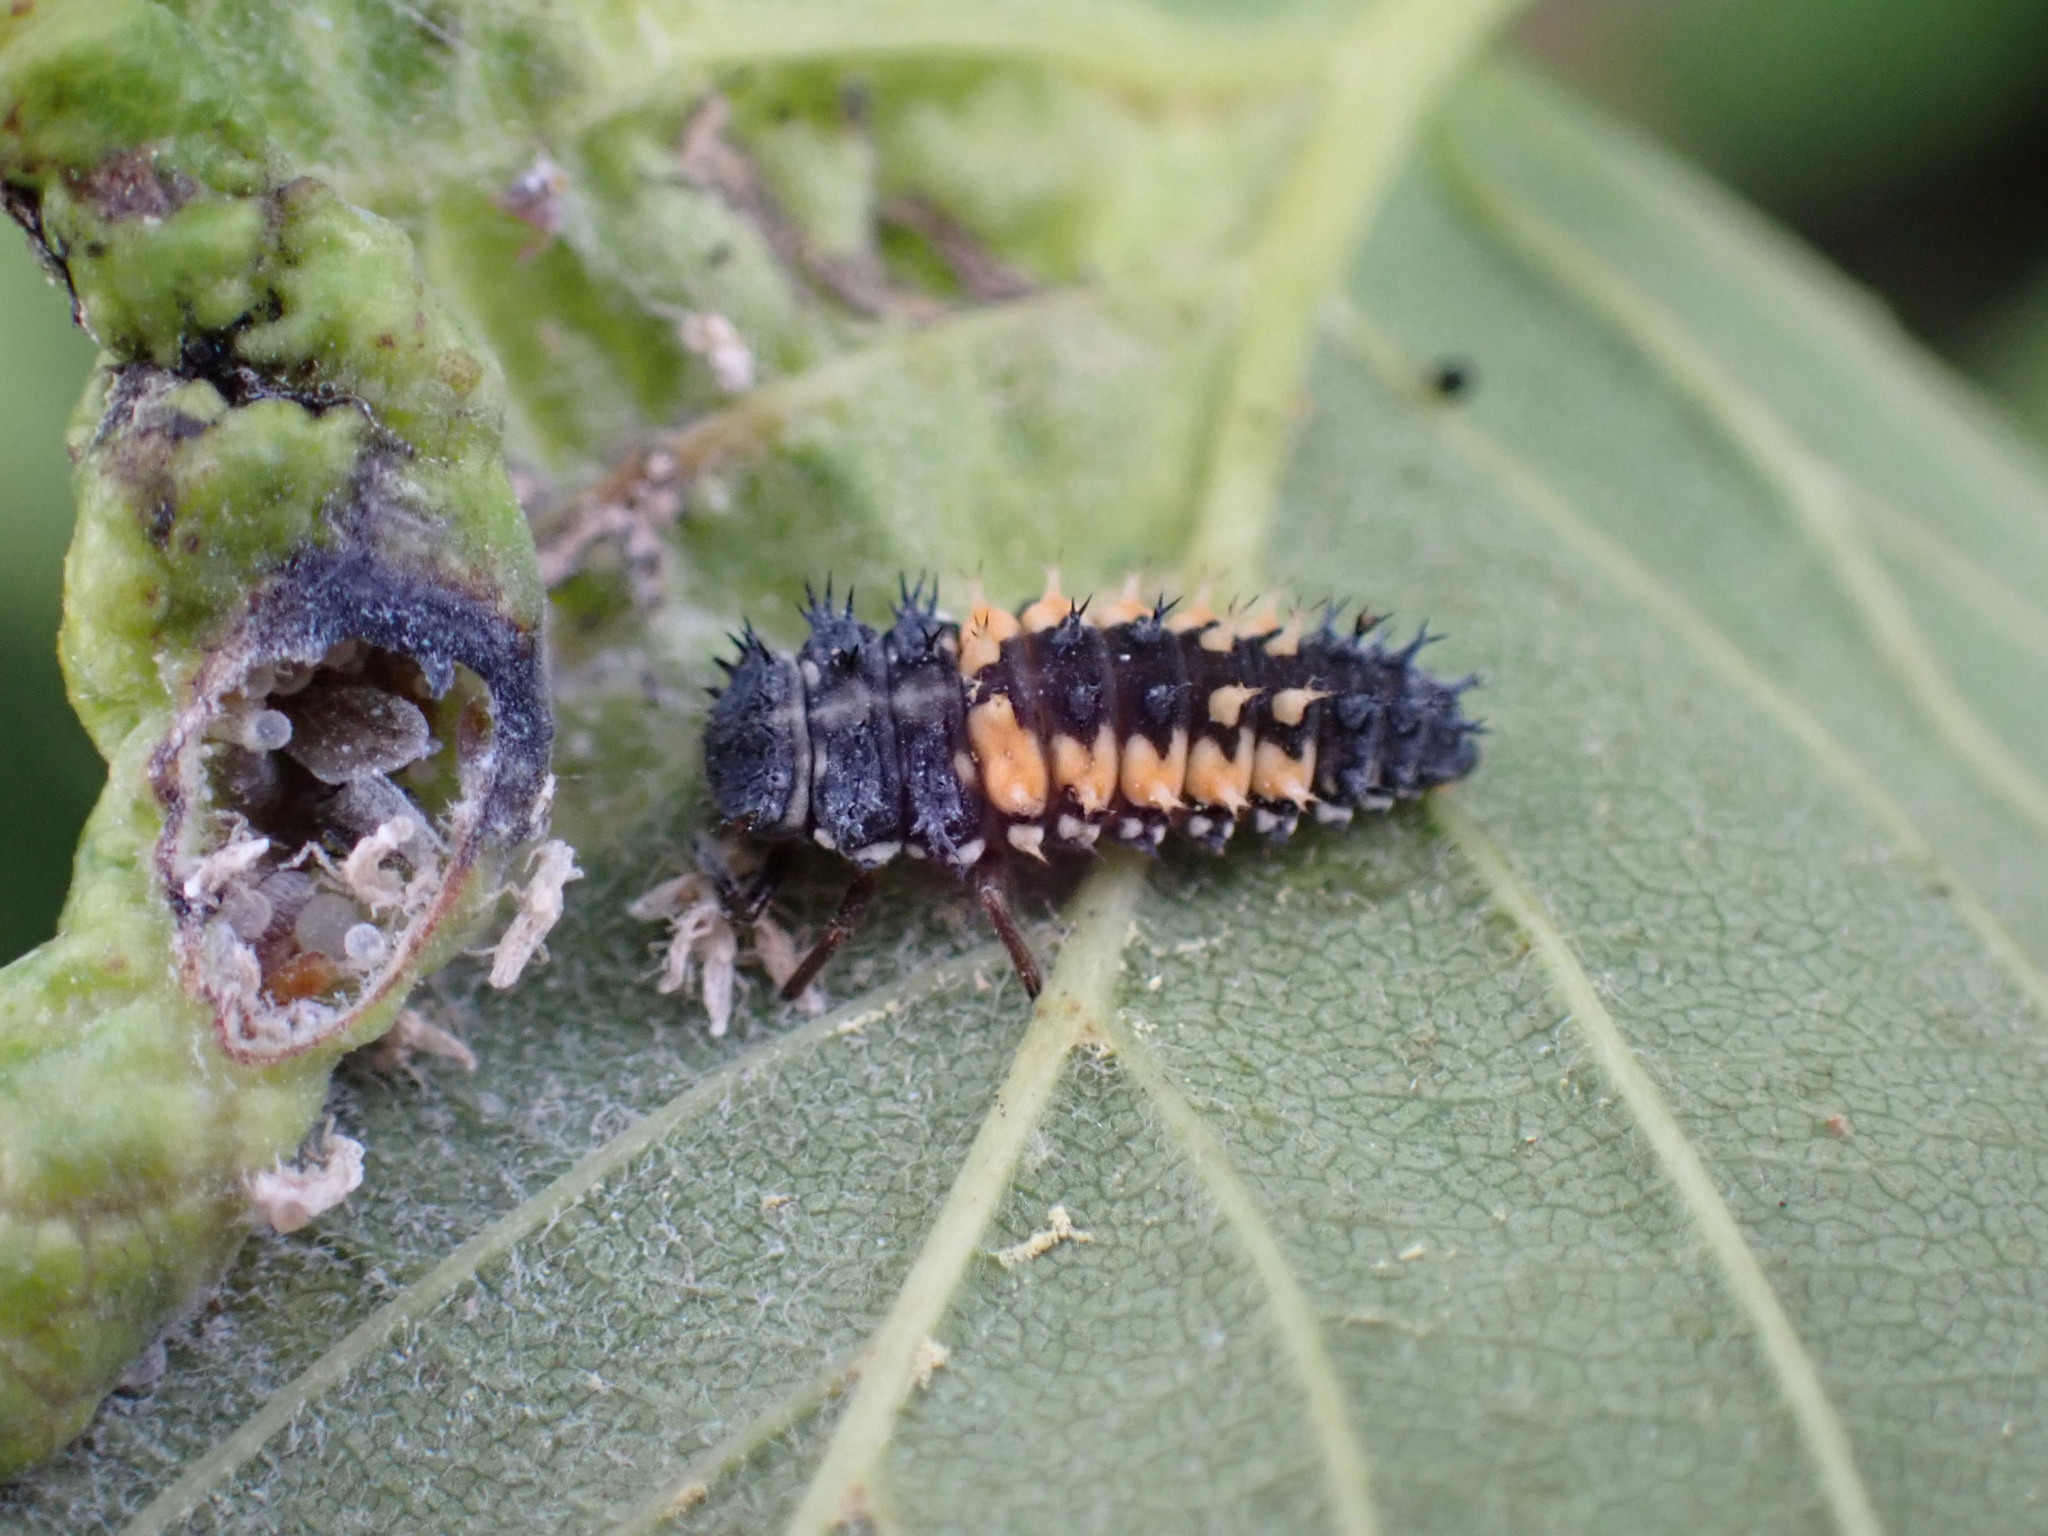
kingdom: Animalia
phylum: Arthropoda
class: Insecta
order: Coleoptera
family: Coccinellidae
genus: Harmonia
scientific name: Harmonia axyridis
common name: Harlequin ladybird
